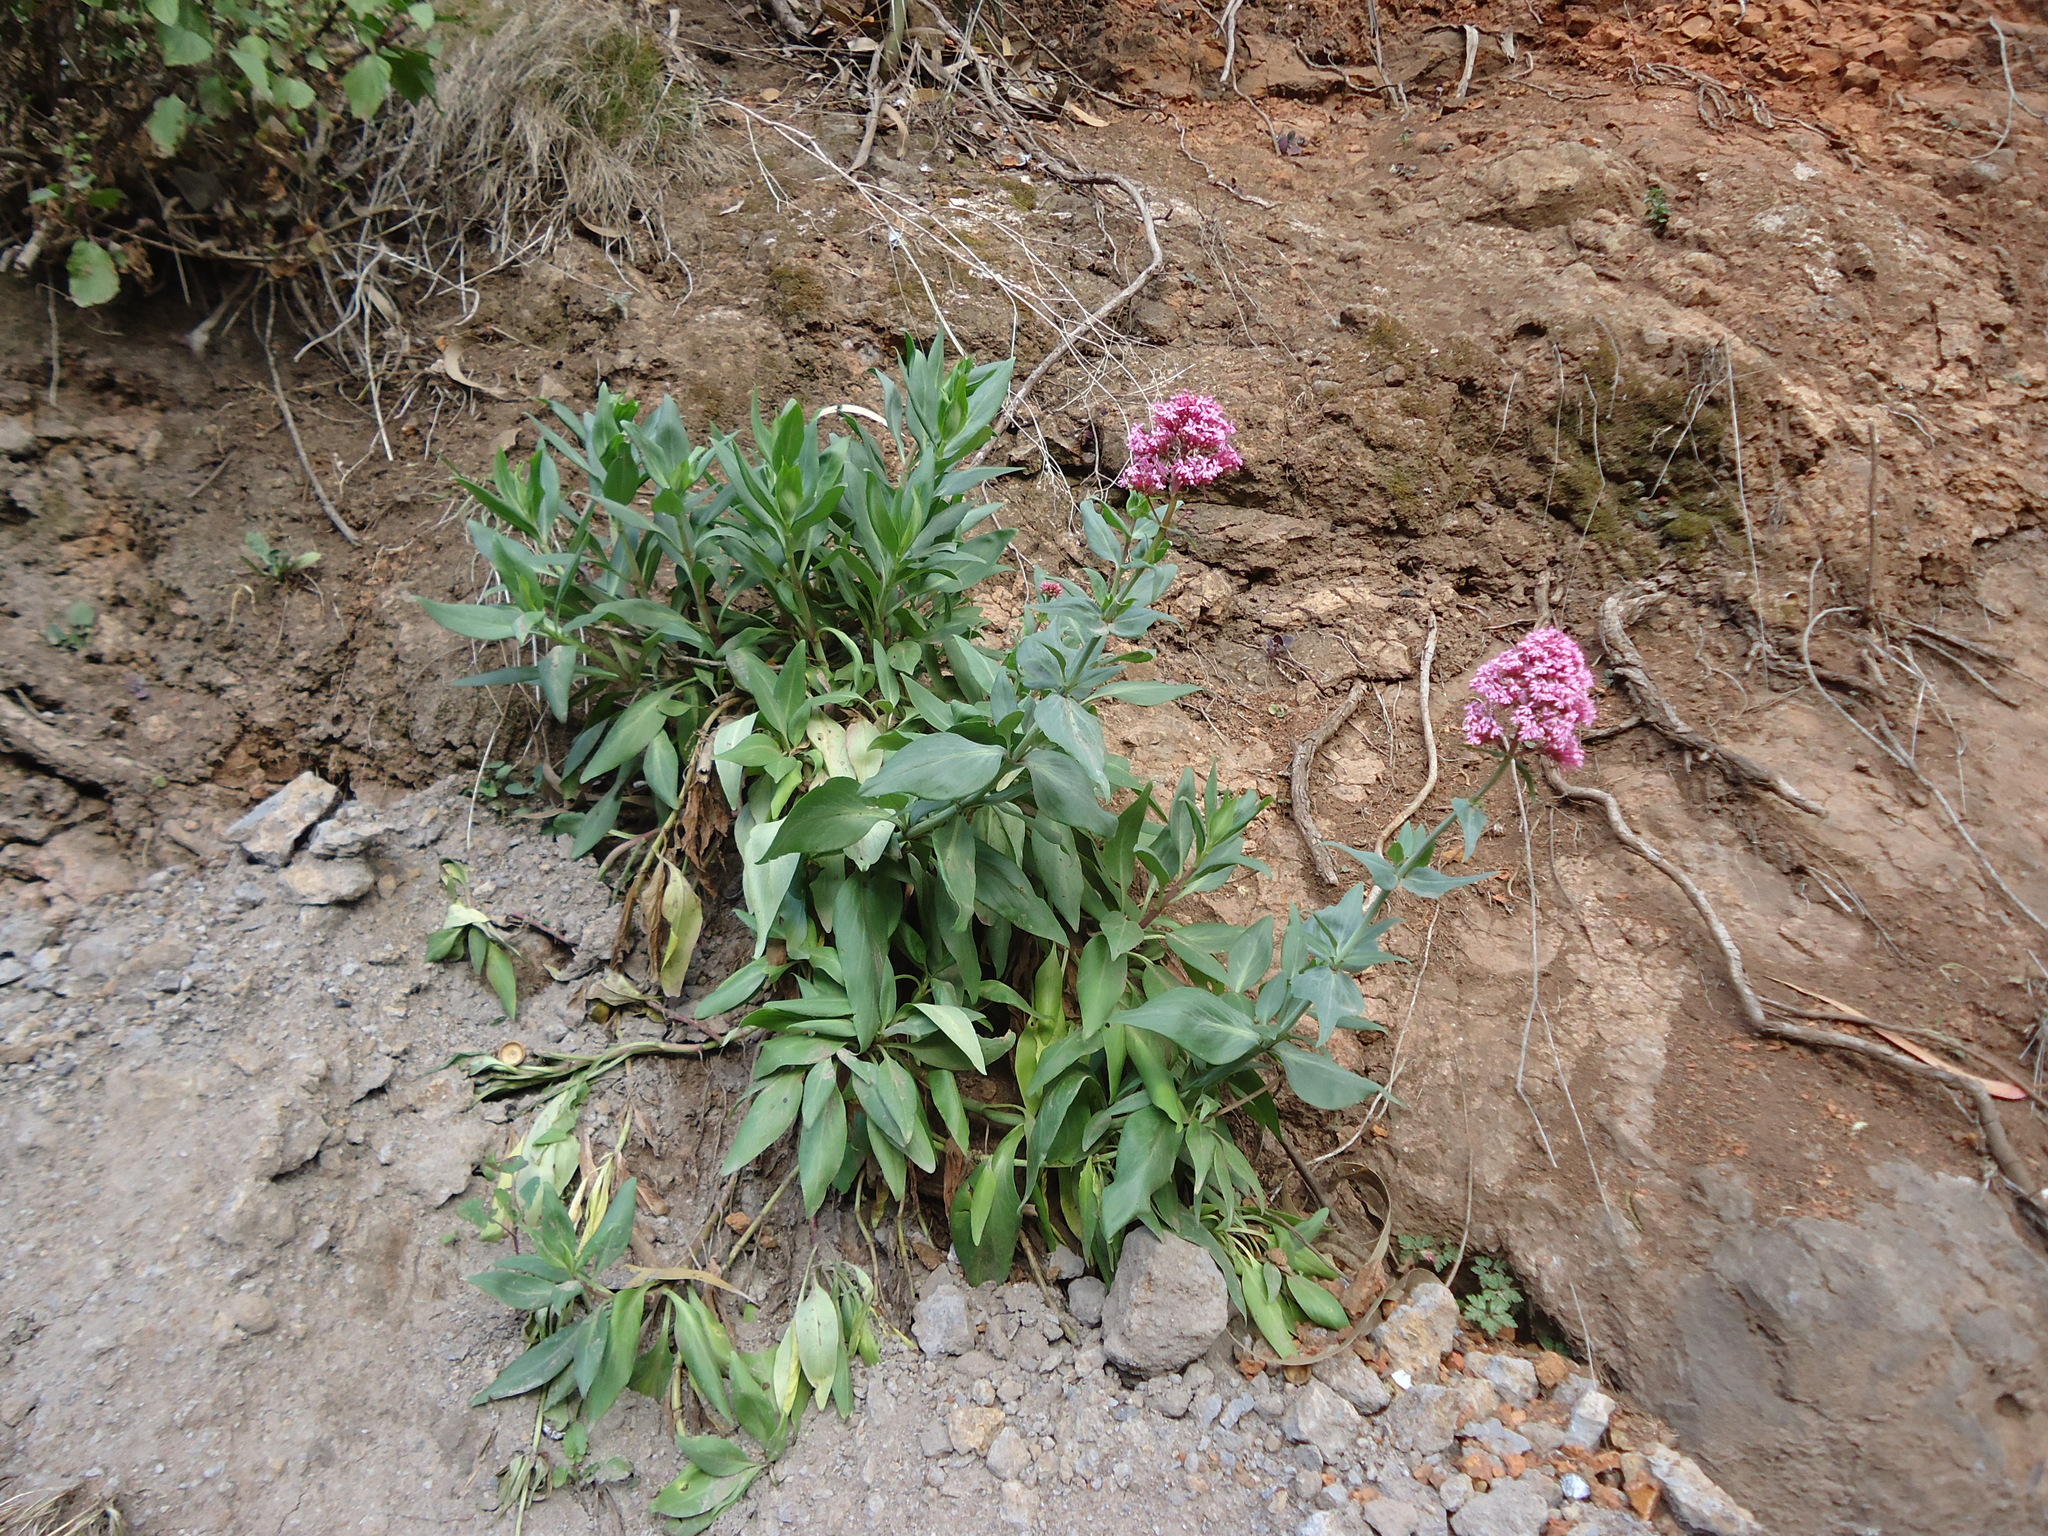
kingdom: Plantae
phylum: Tracheophyta
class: Magnoliopsida
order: Dipsacales
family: Caprifoliaceae
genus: Centranthus
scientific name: Centranthus ruber
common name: Red valerian
